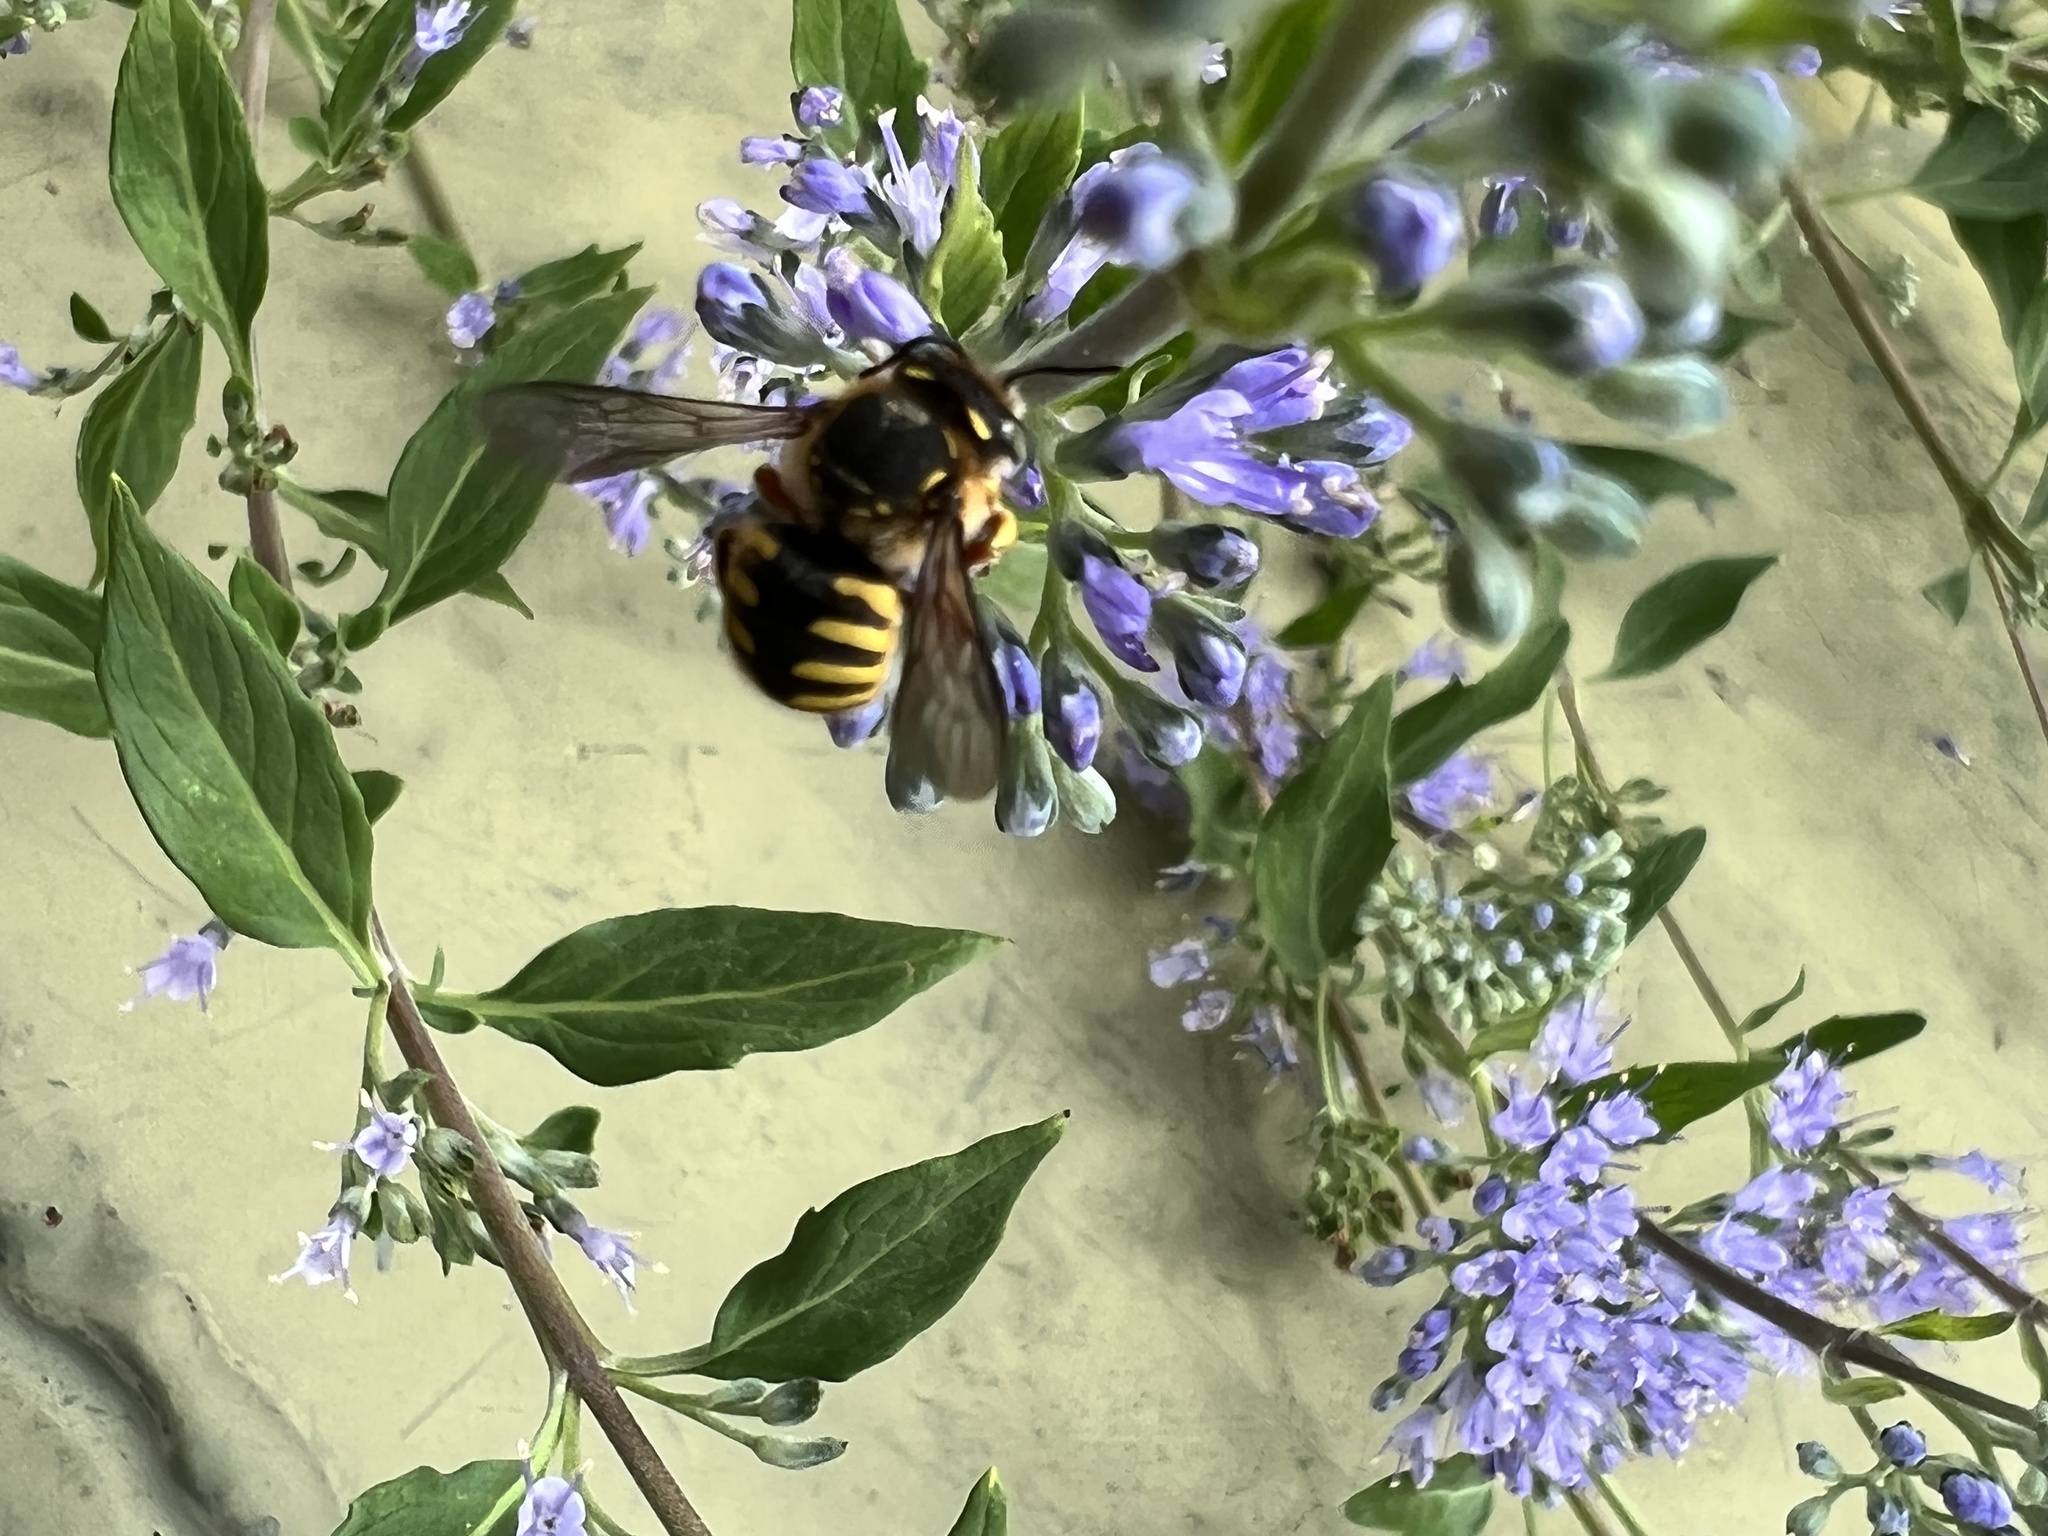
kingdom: Animalia
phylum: Arthropoda
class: Insecta
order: Hymenoptera
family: Megachilidae
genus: Anthidium
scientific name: Anthidium manicatum
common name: Wool carder bee
